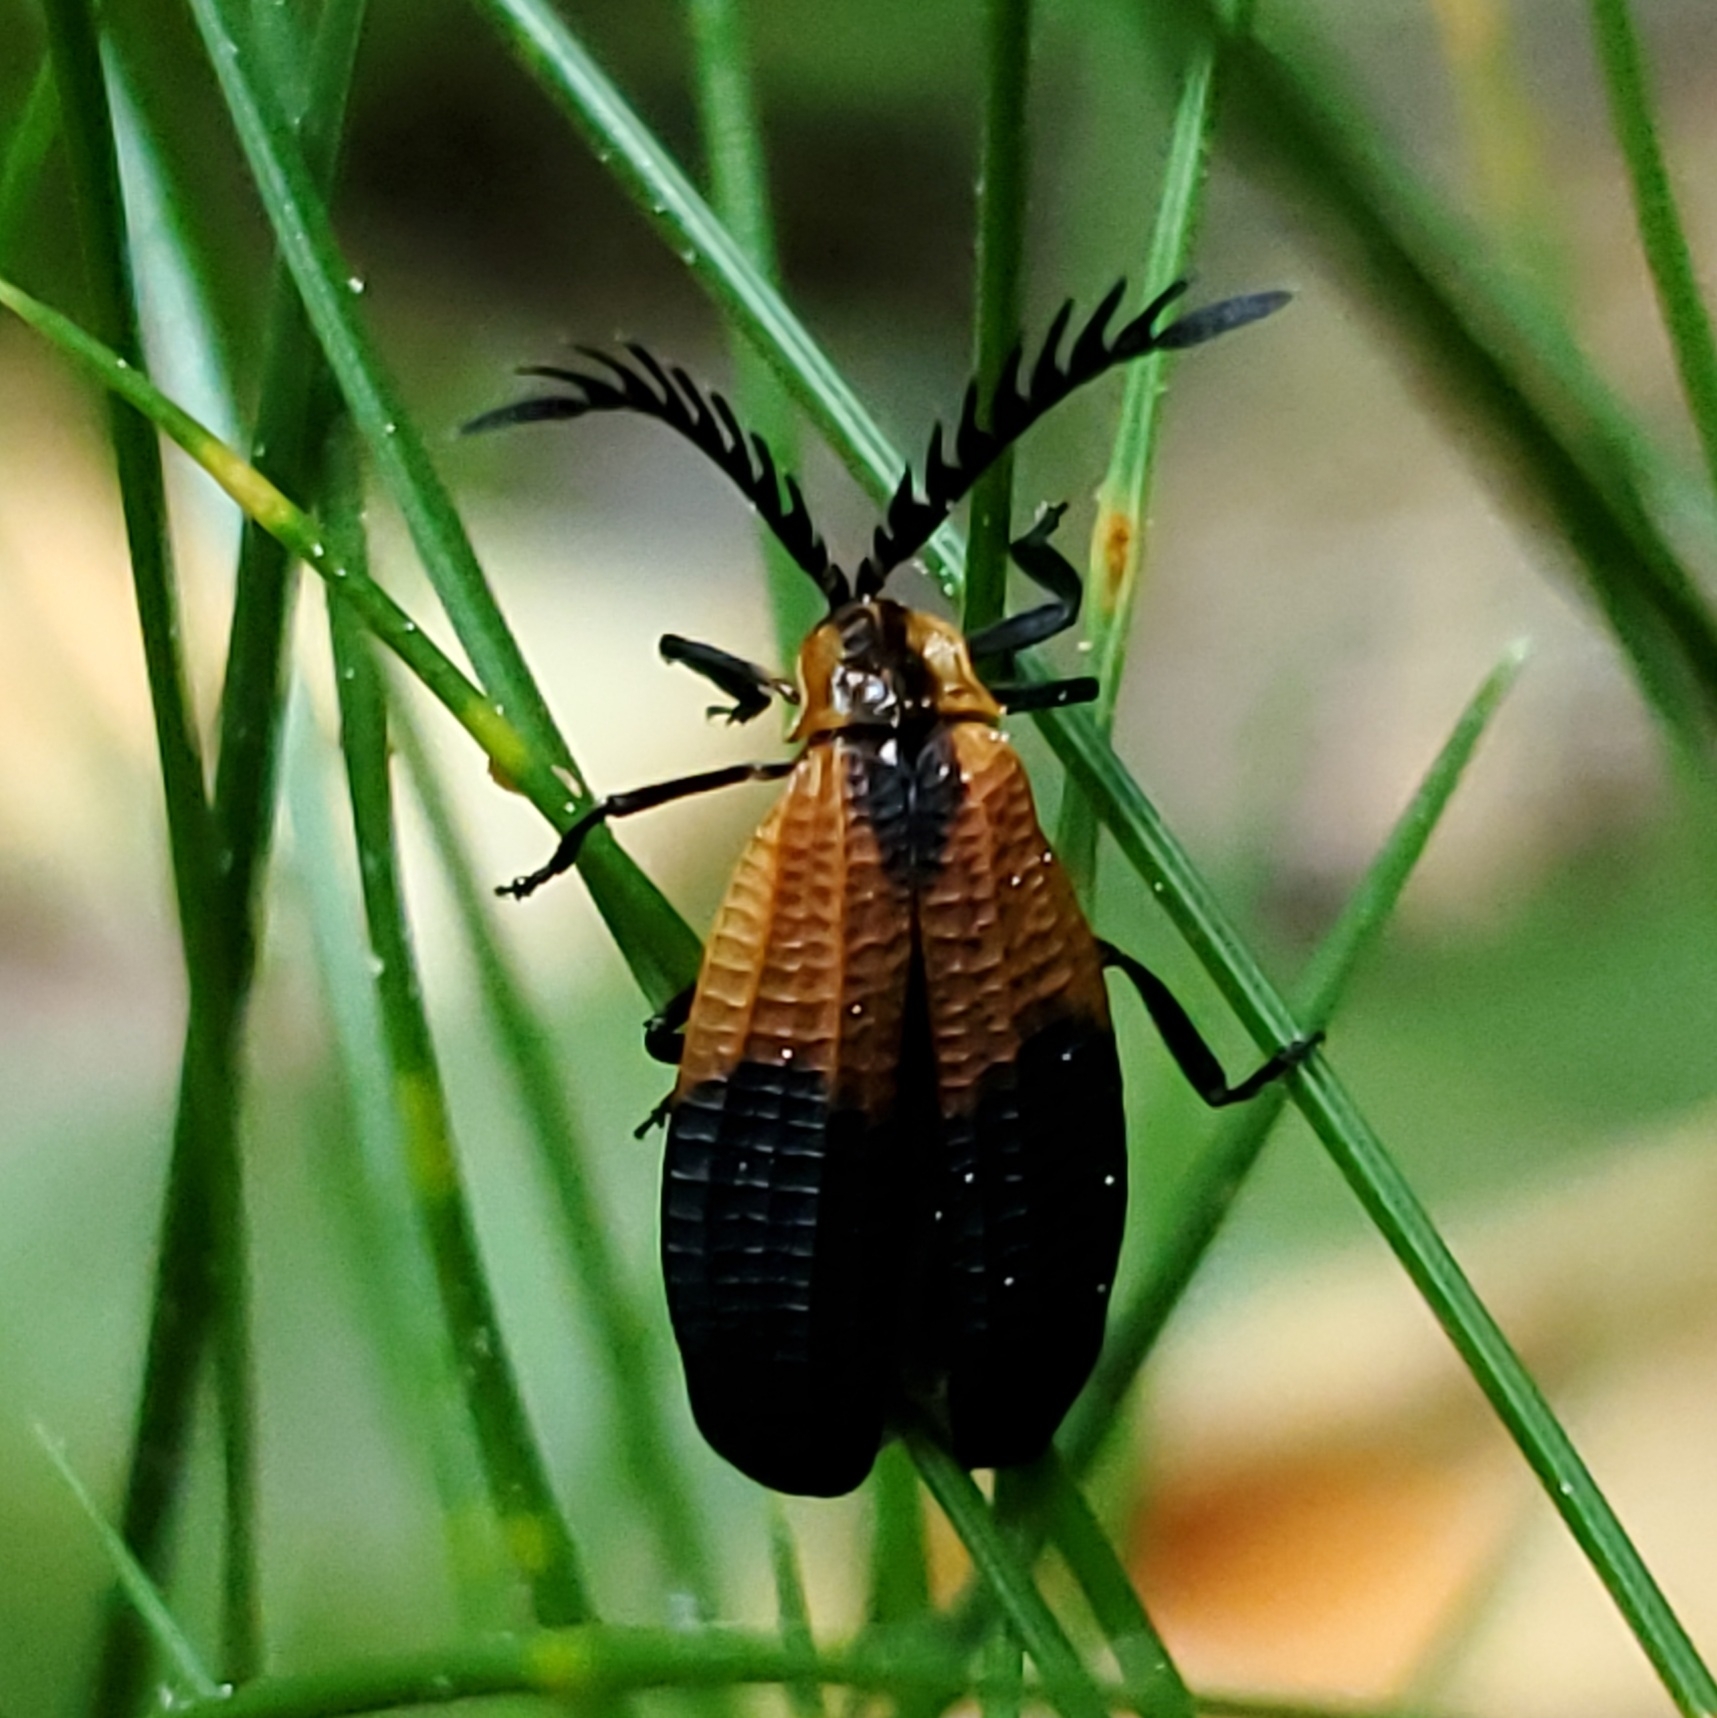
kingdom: Animalia
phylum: Arthropoda
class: Insecta
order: Coleoptera
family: Lycidae
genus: Caenia
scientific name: Caenia dimidiata
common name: Terminal net-winged beetle
